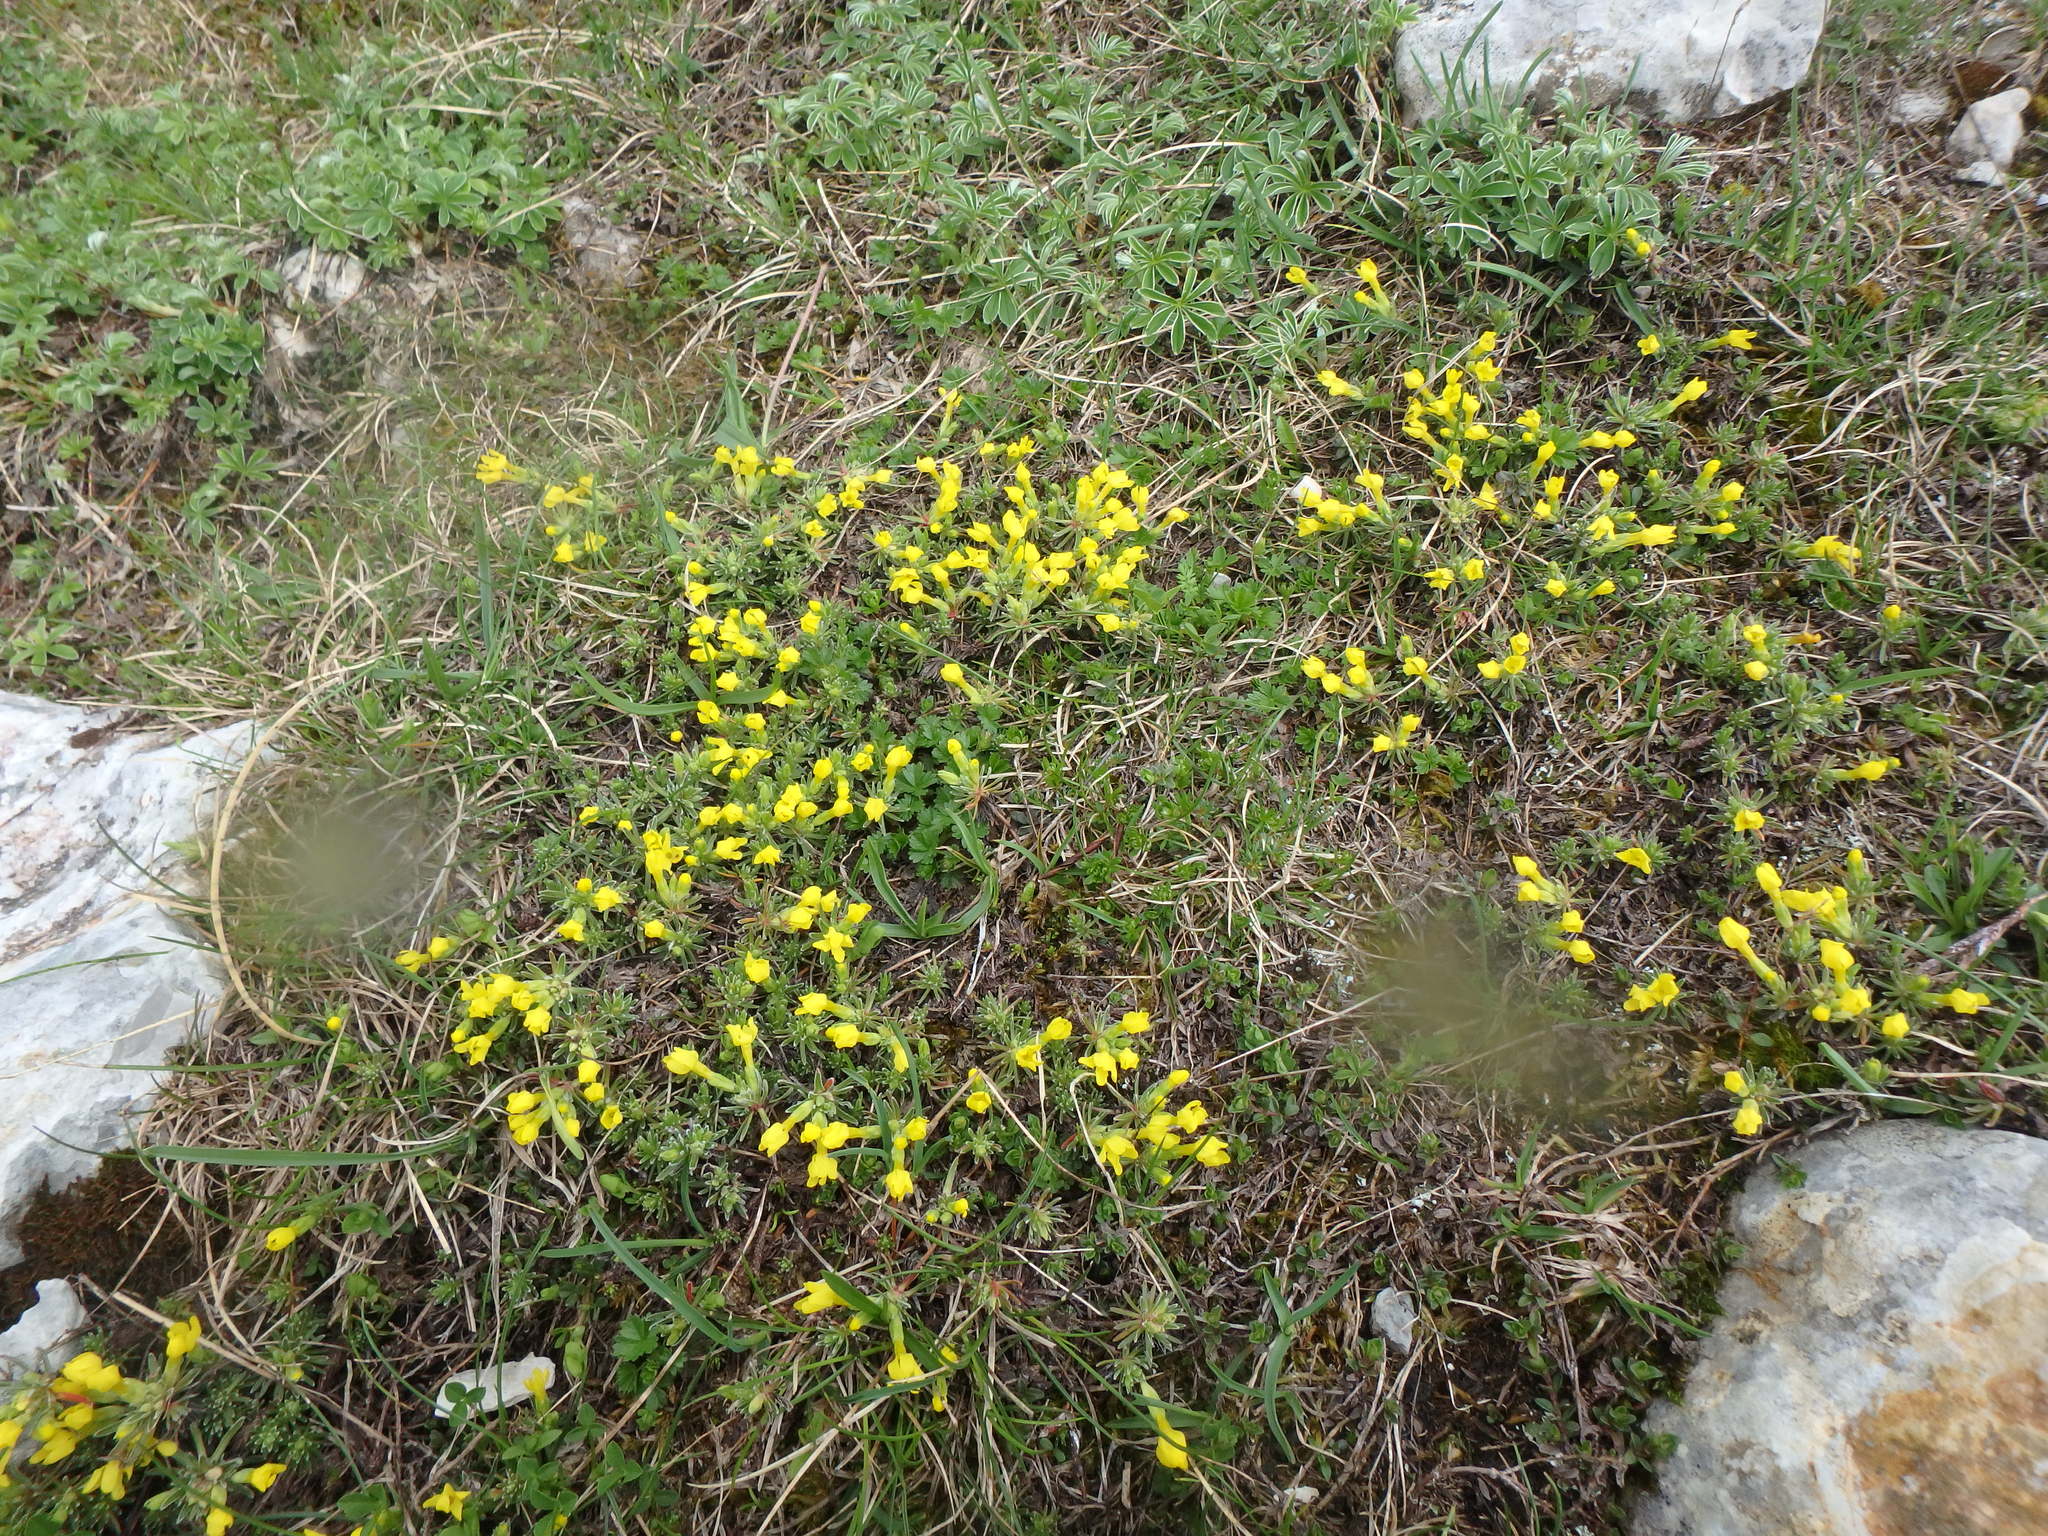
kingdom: Plantae
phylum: Tracheophyta
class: Magnoliopsida
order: Ericales
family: Primulaceae
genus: Androsace
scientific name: Androsace vitaliana
